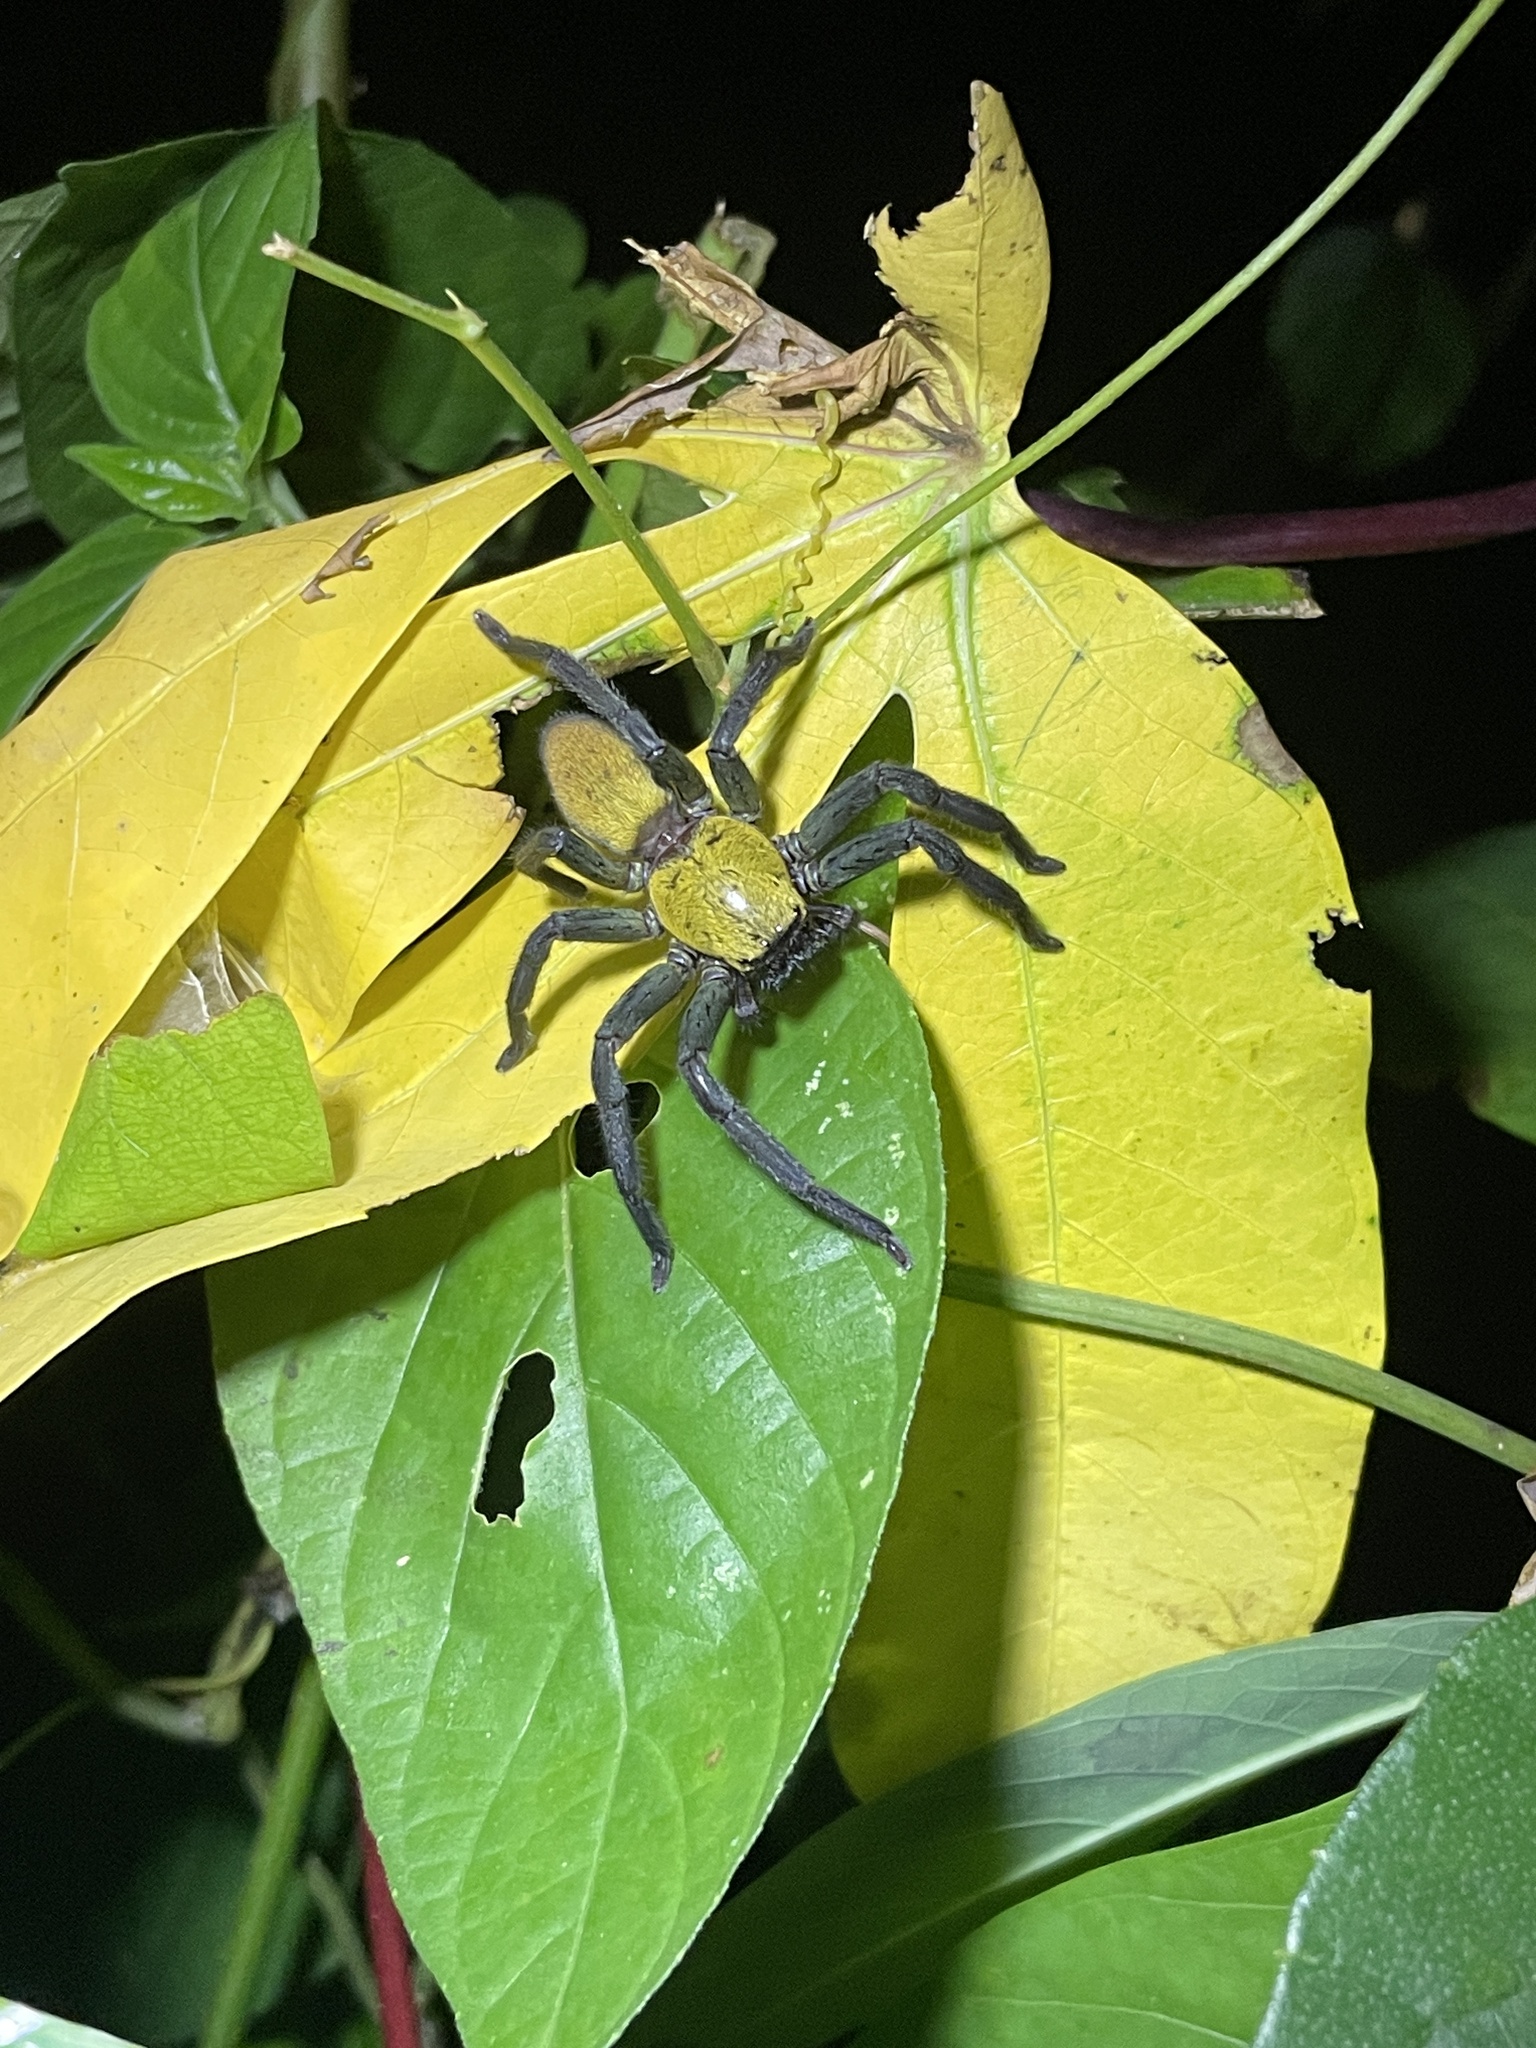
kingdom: Animalia
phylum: Arthropoda
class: Arachnida
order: Araneae
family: Sparassidae
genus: Thelcticopis
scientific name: Thelcticopis orichalcea
